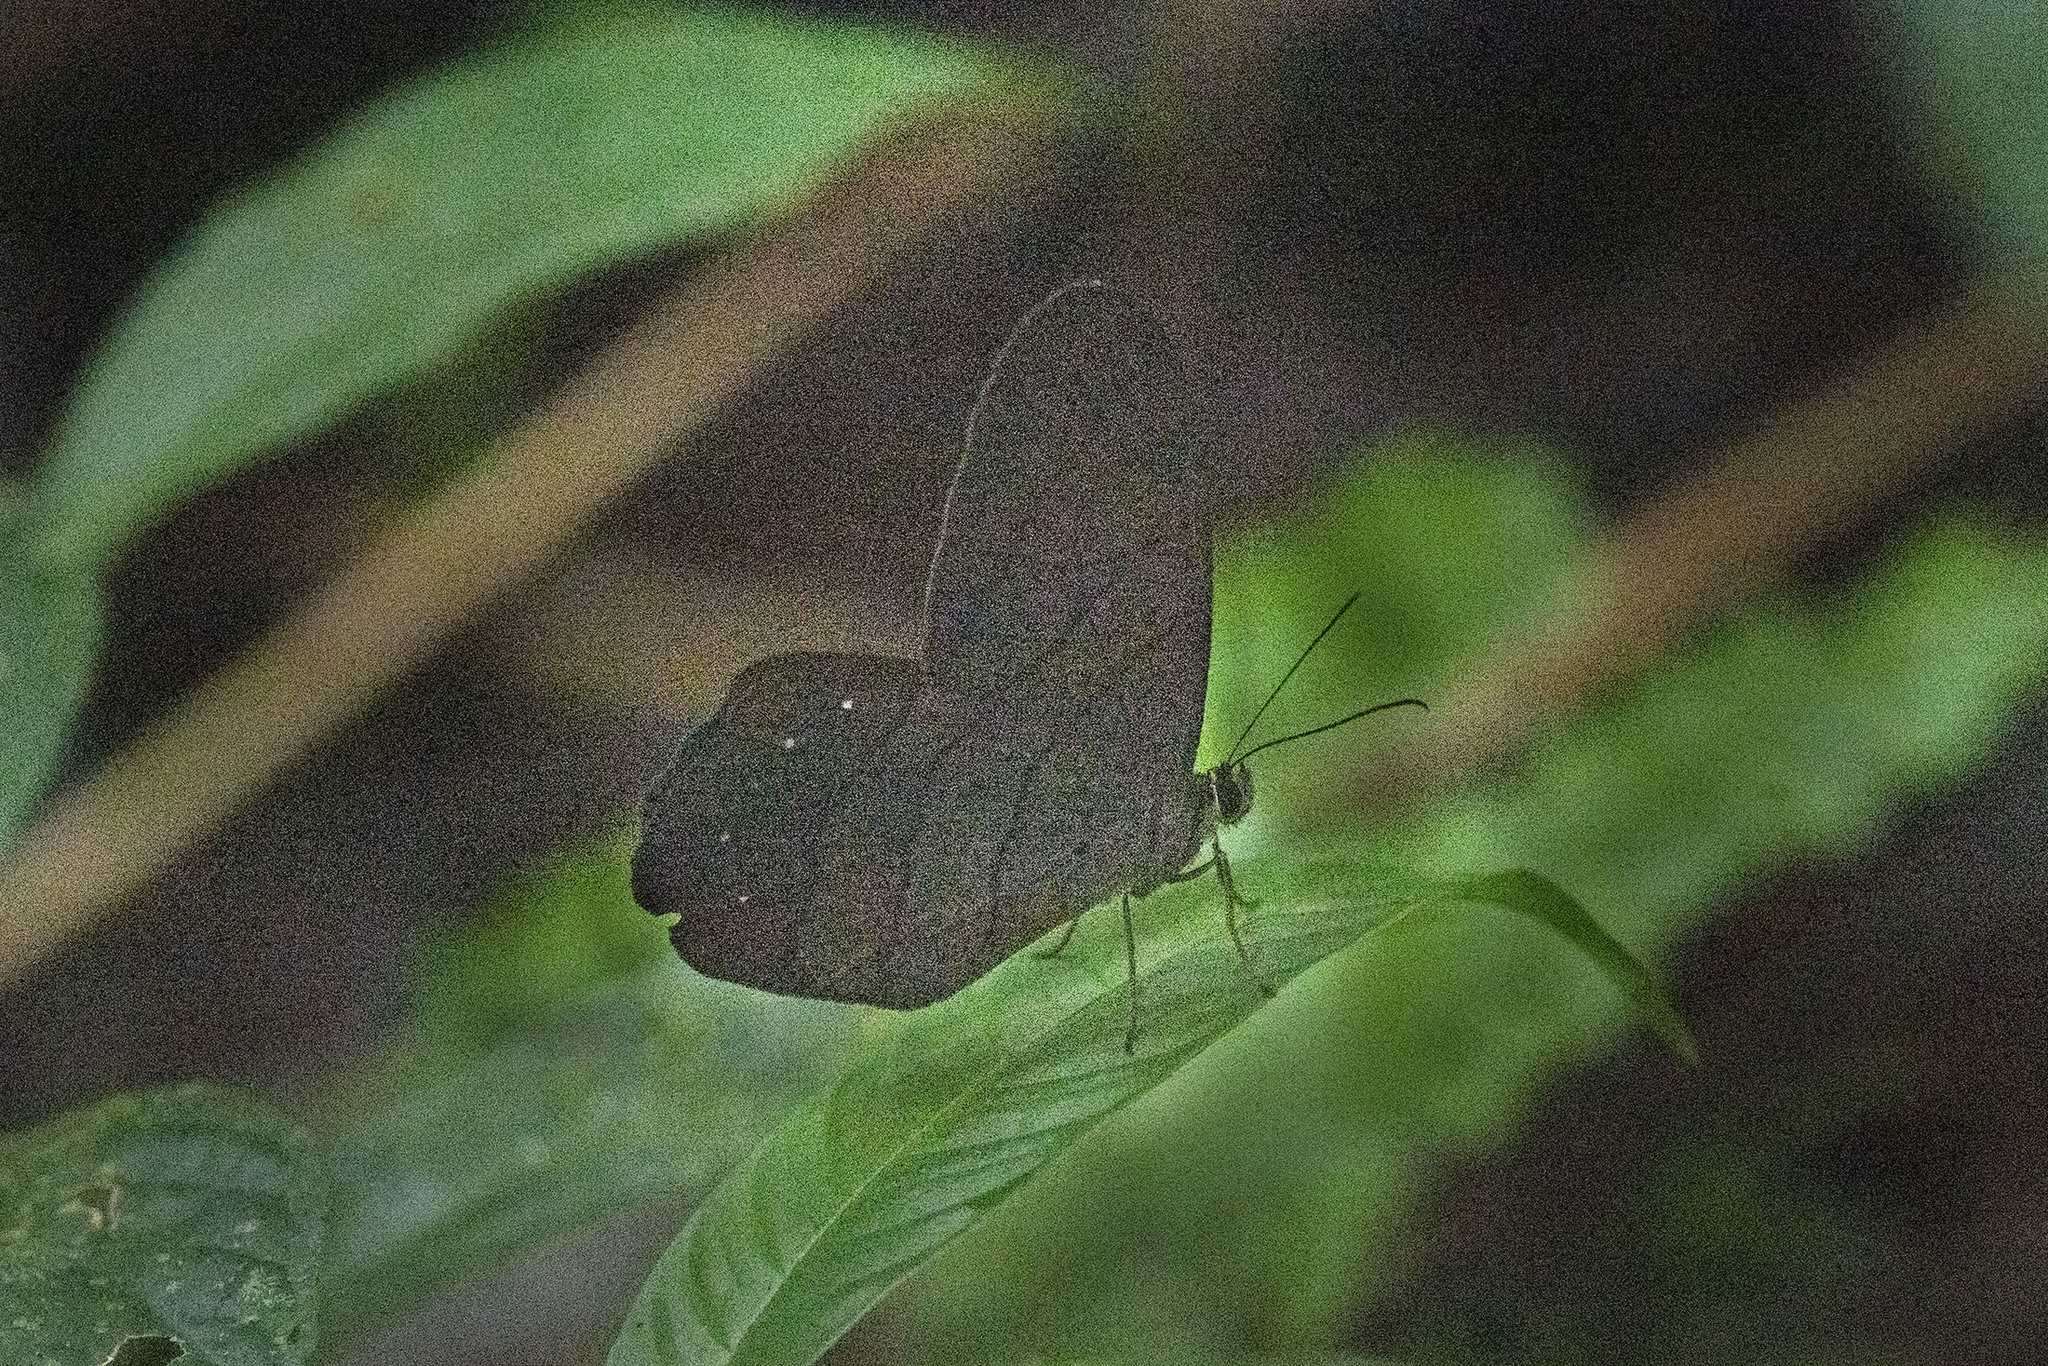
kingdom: Animalia
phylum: Arthropoda
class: Insecta
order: Lepidoptera
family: Nymphalidae
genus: Pierella
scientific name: Pierella rhea
